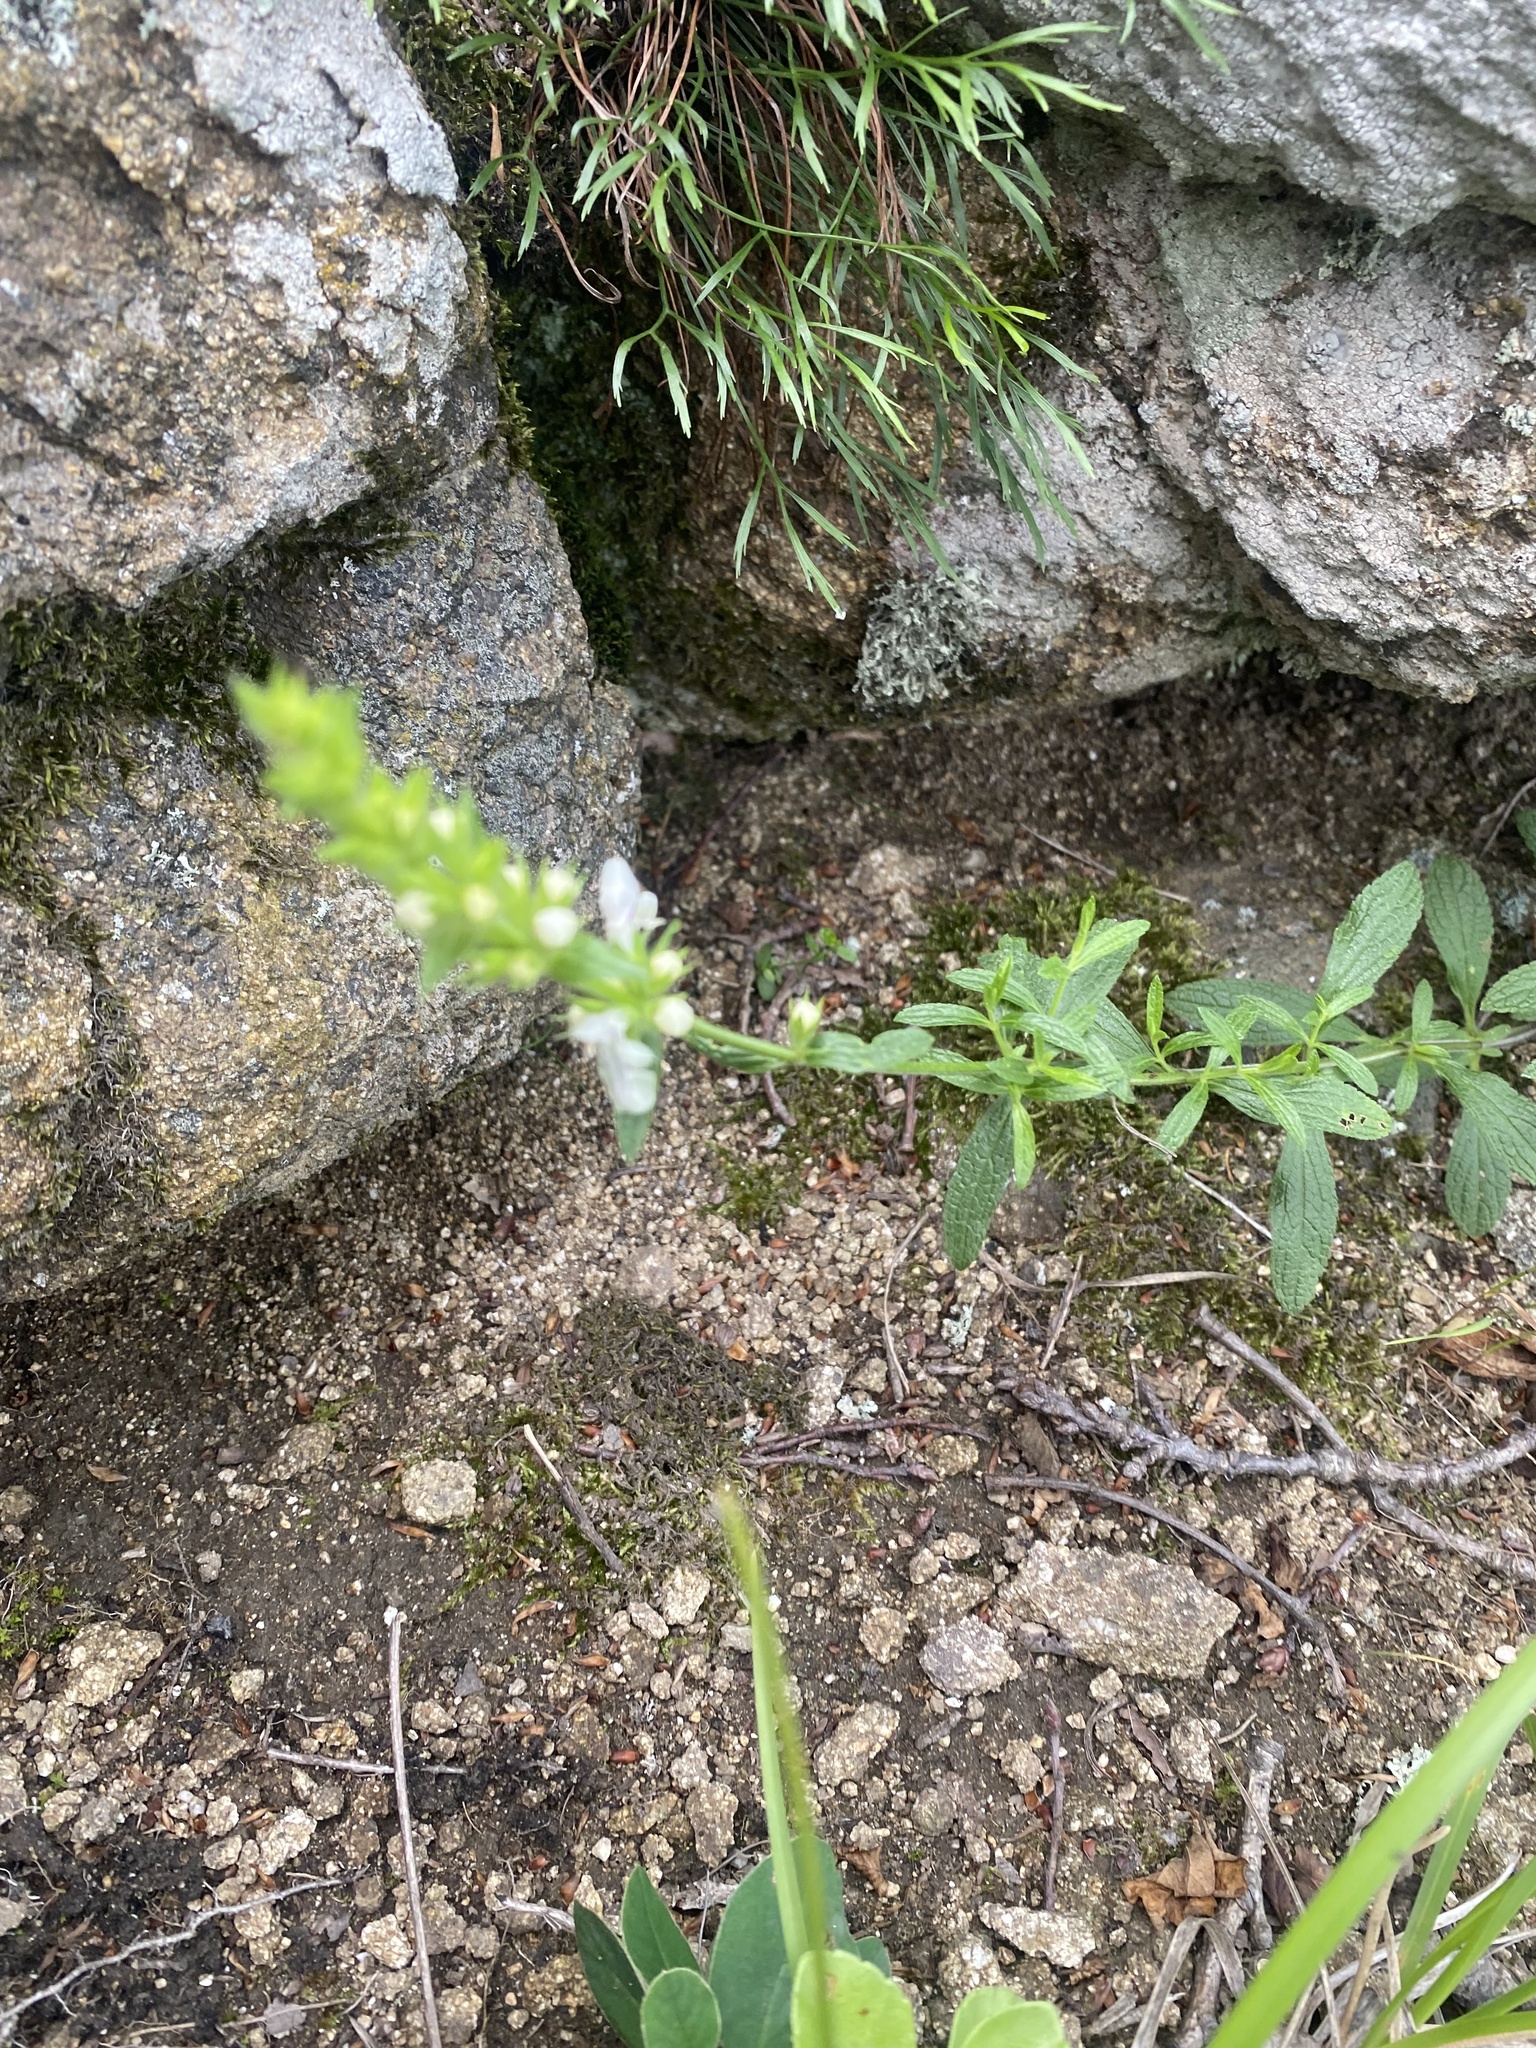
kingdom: Plantae
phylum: Tracheophyta
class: Magnoliopsida
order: Lamiales
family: Lamiaceae
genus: Stachys
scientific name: Stachys atherocalyx
